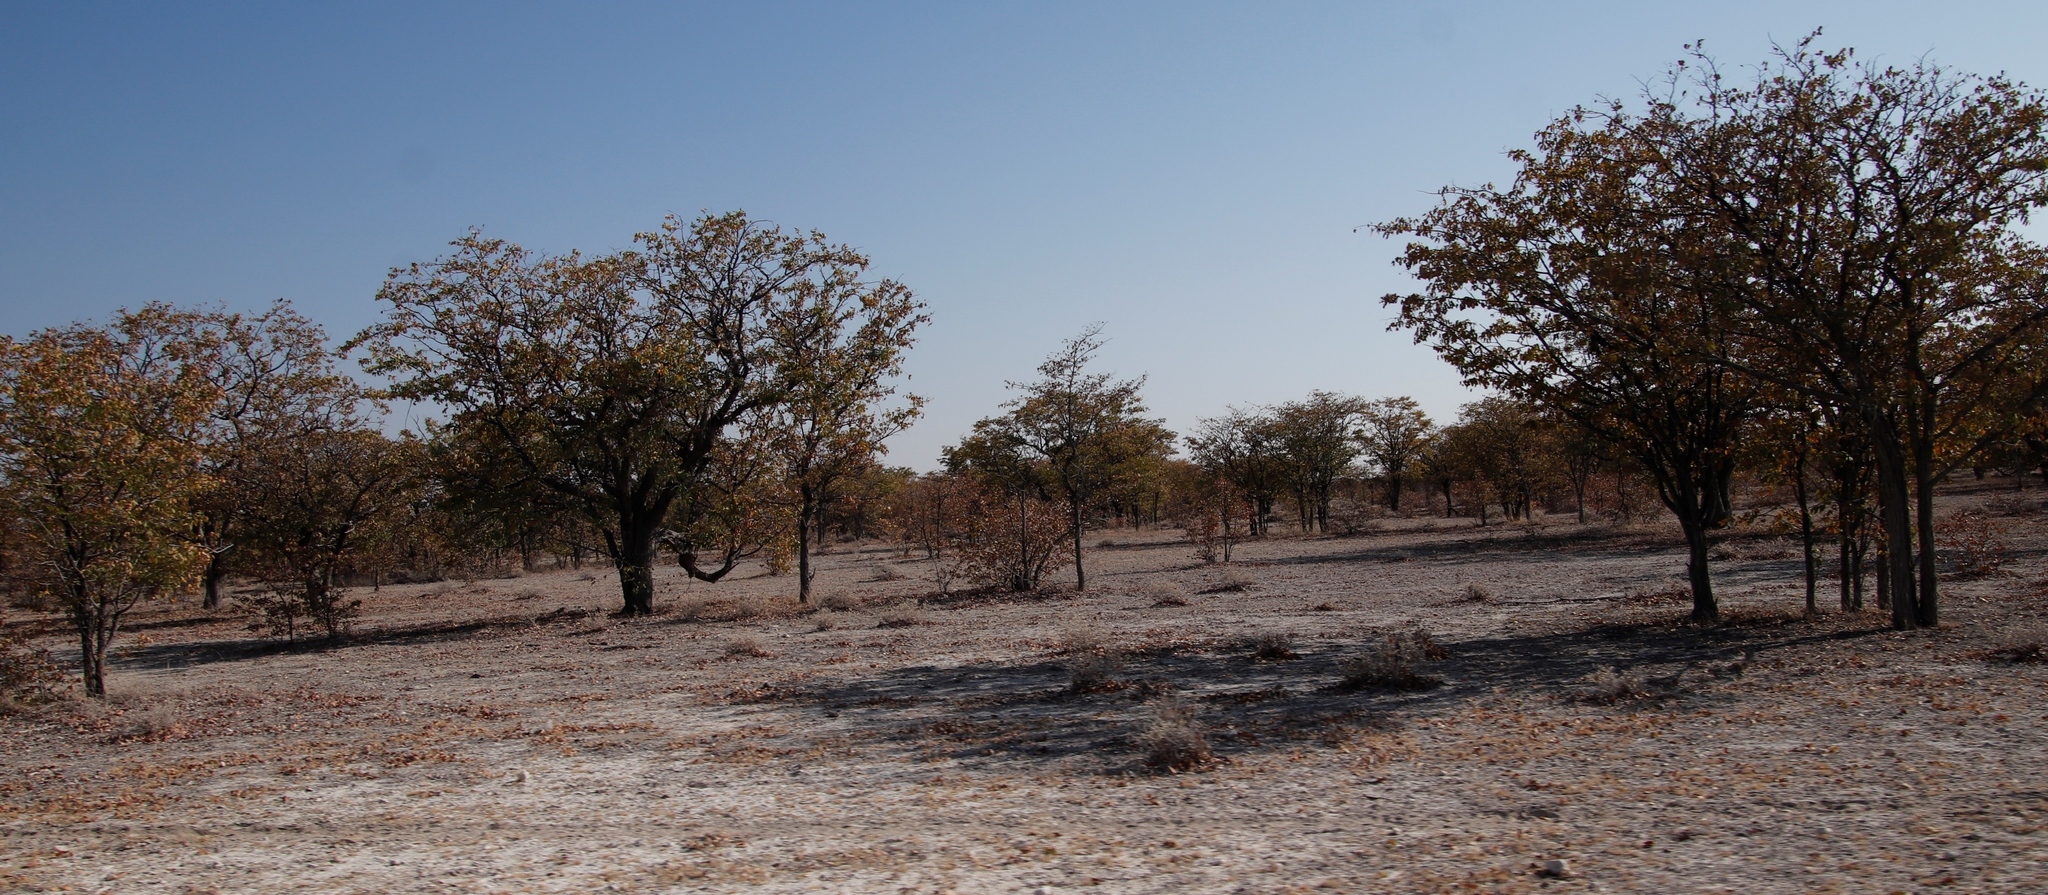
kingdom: Plantae
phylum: Tracheophyta
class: Magnoliopsida
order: Fabales
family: Fabaceae
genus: Colophospermum
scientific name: Colophospermum mopane
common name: Mopane
